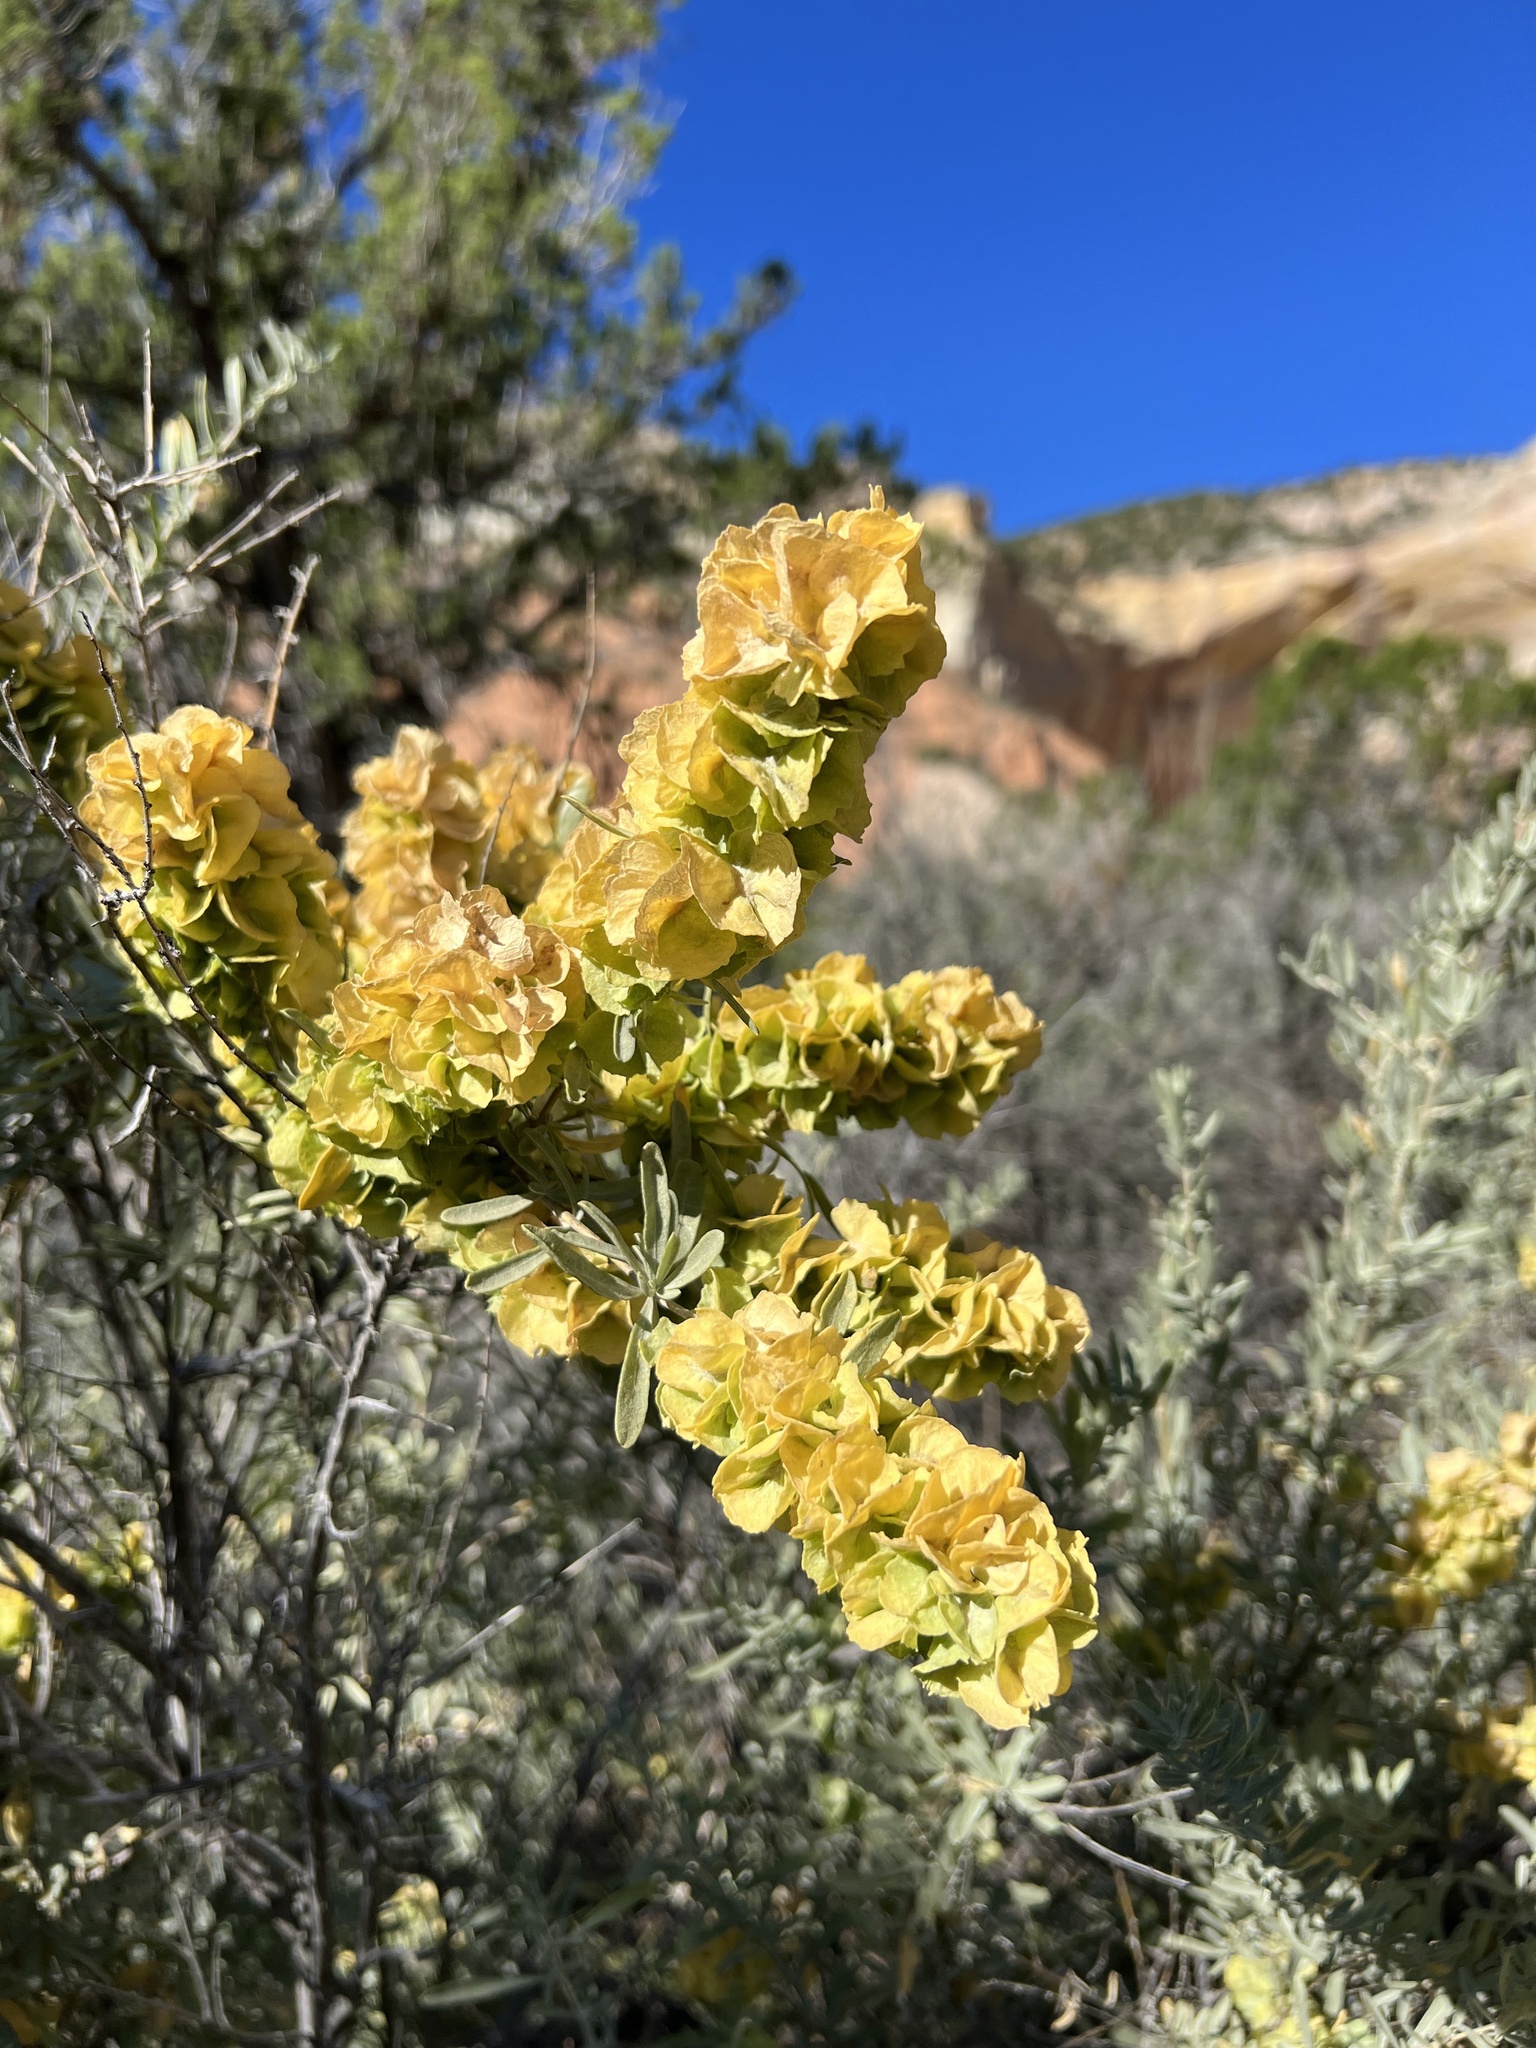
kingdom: Plantae
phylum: Tracheophyta
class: Magnoliopsida
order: Caryophyllales
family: Amaranthaceae
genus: Atriplex
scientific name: Atriplex canescens
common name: Four-wing saltbush
